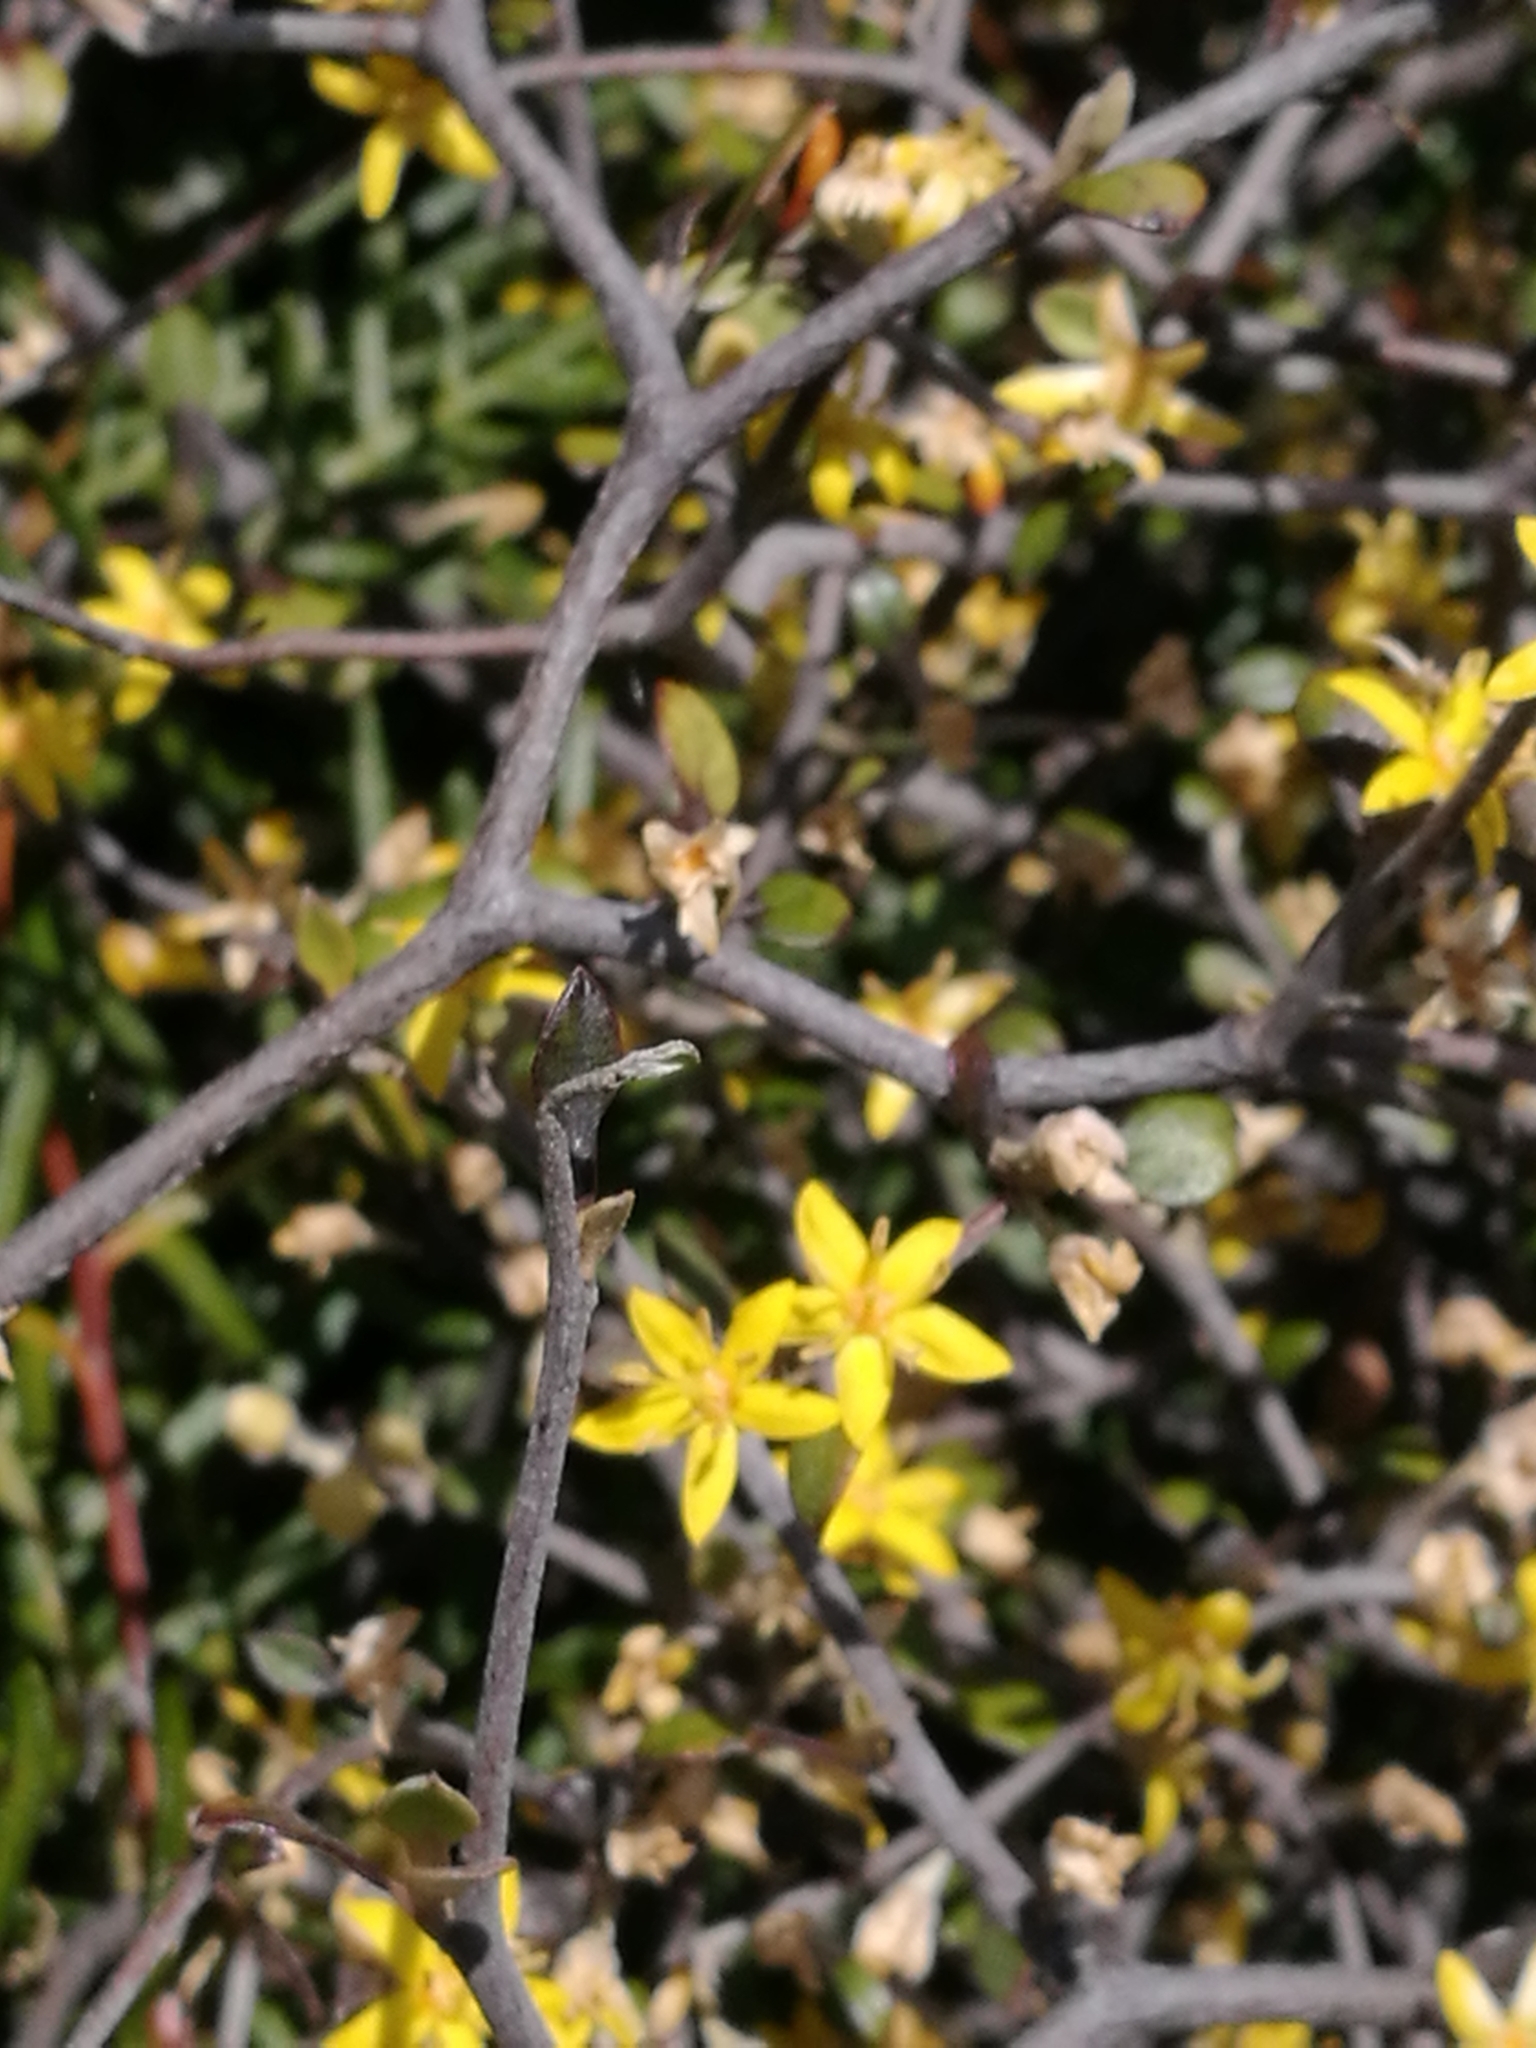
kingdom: Plantae
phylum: Tracheophyta
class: Magnoliopsida
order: Asterales
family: Argophyllaceae
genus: Corokia
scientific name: Corokia cotoneaster
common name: Wire nettingbush
